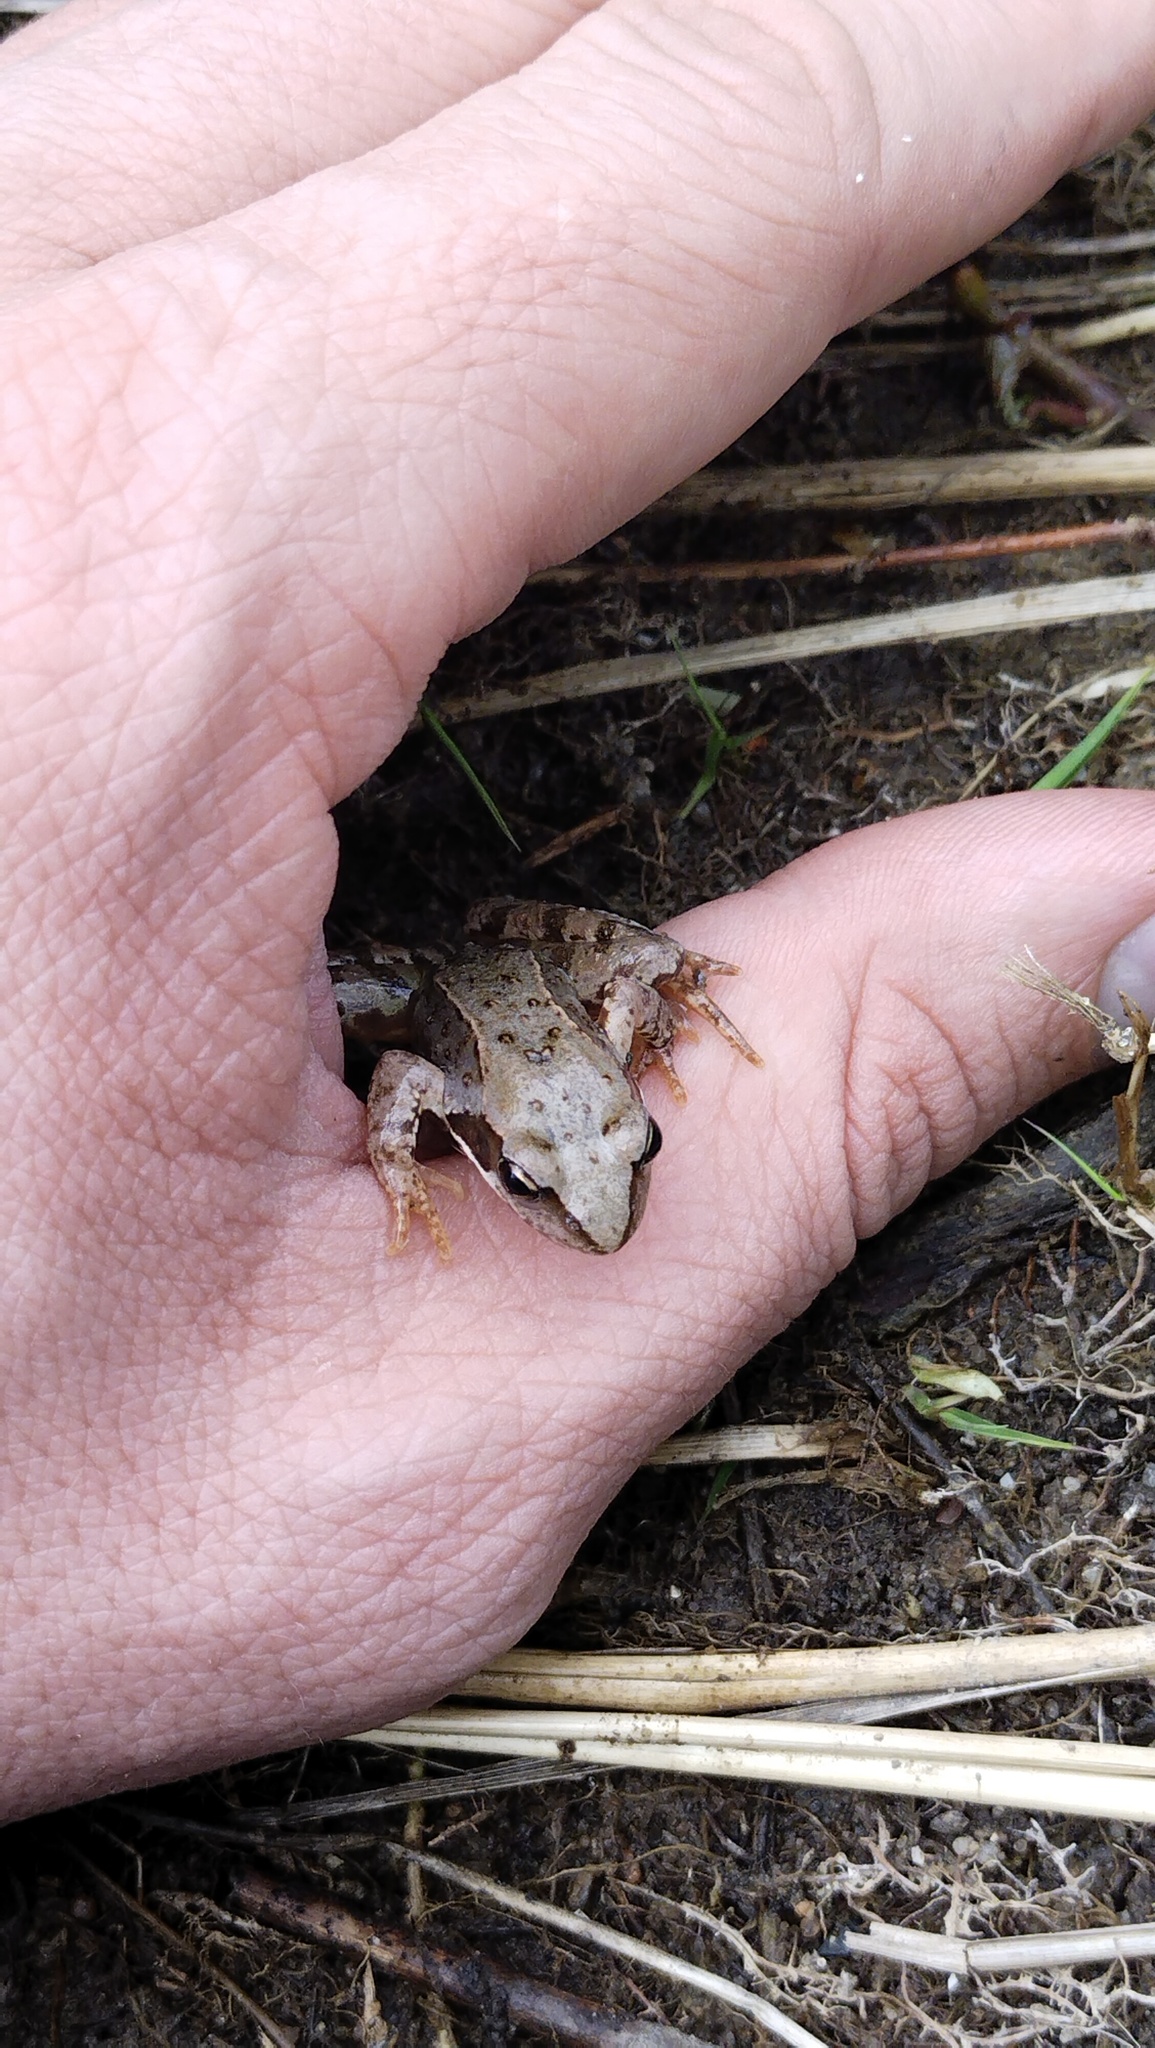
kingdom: Animalia
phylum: Chordata
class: Amphibia
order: Anura
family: Ranidae
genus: Rana
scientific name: Rana temporaria
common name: Common frog
